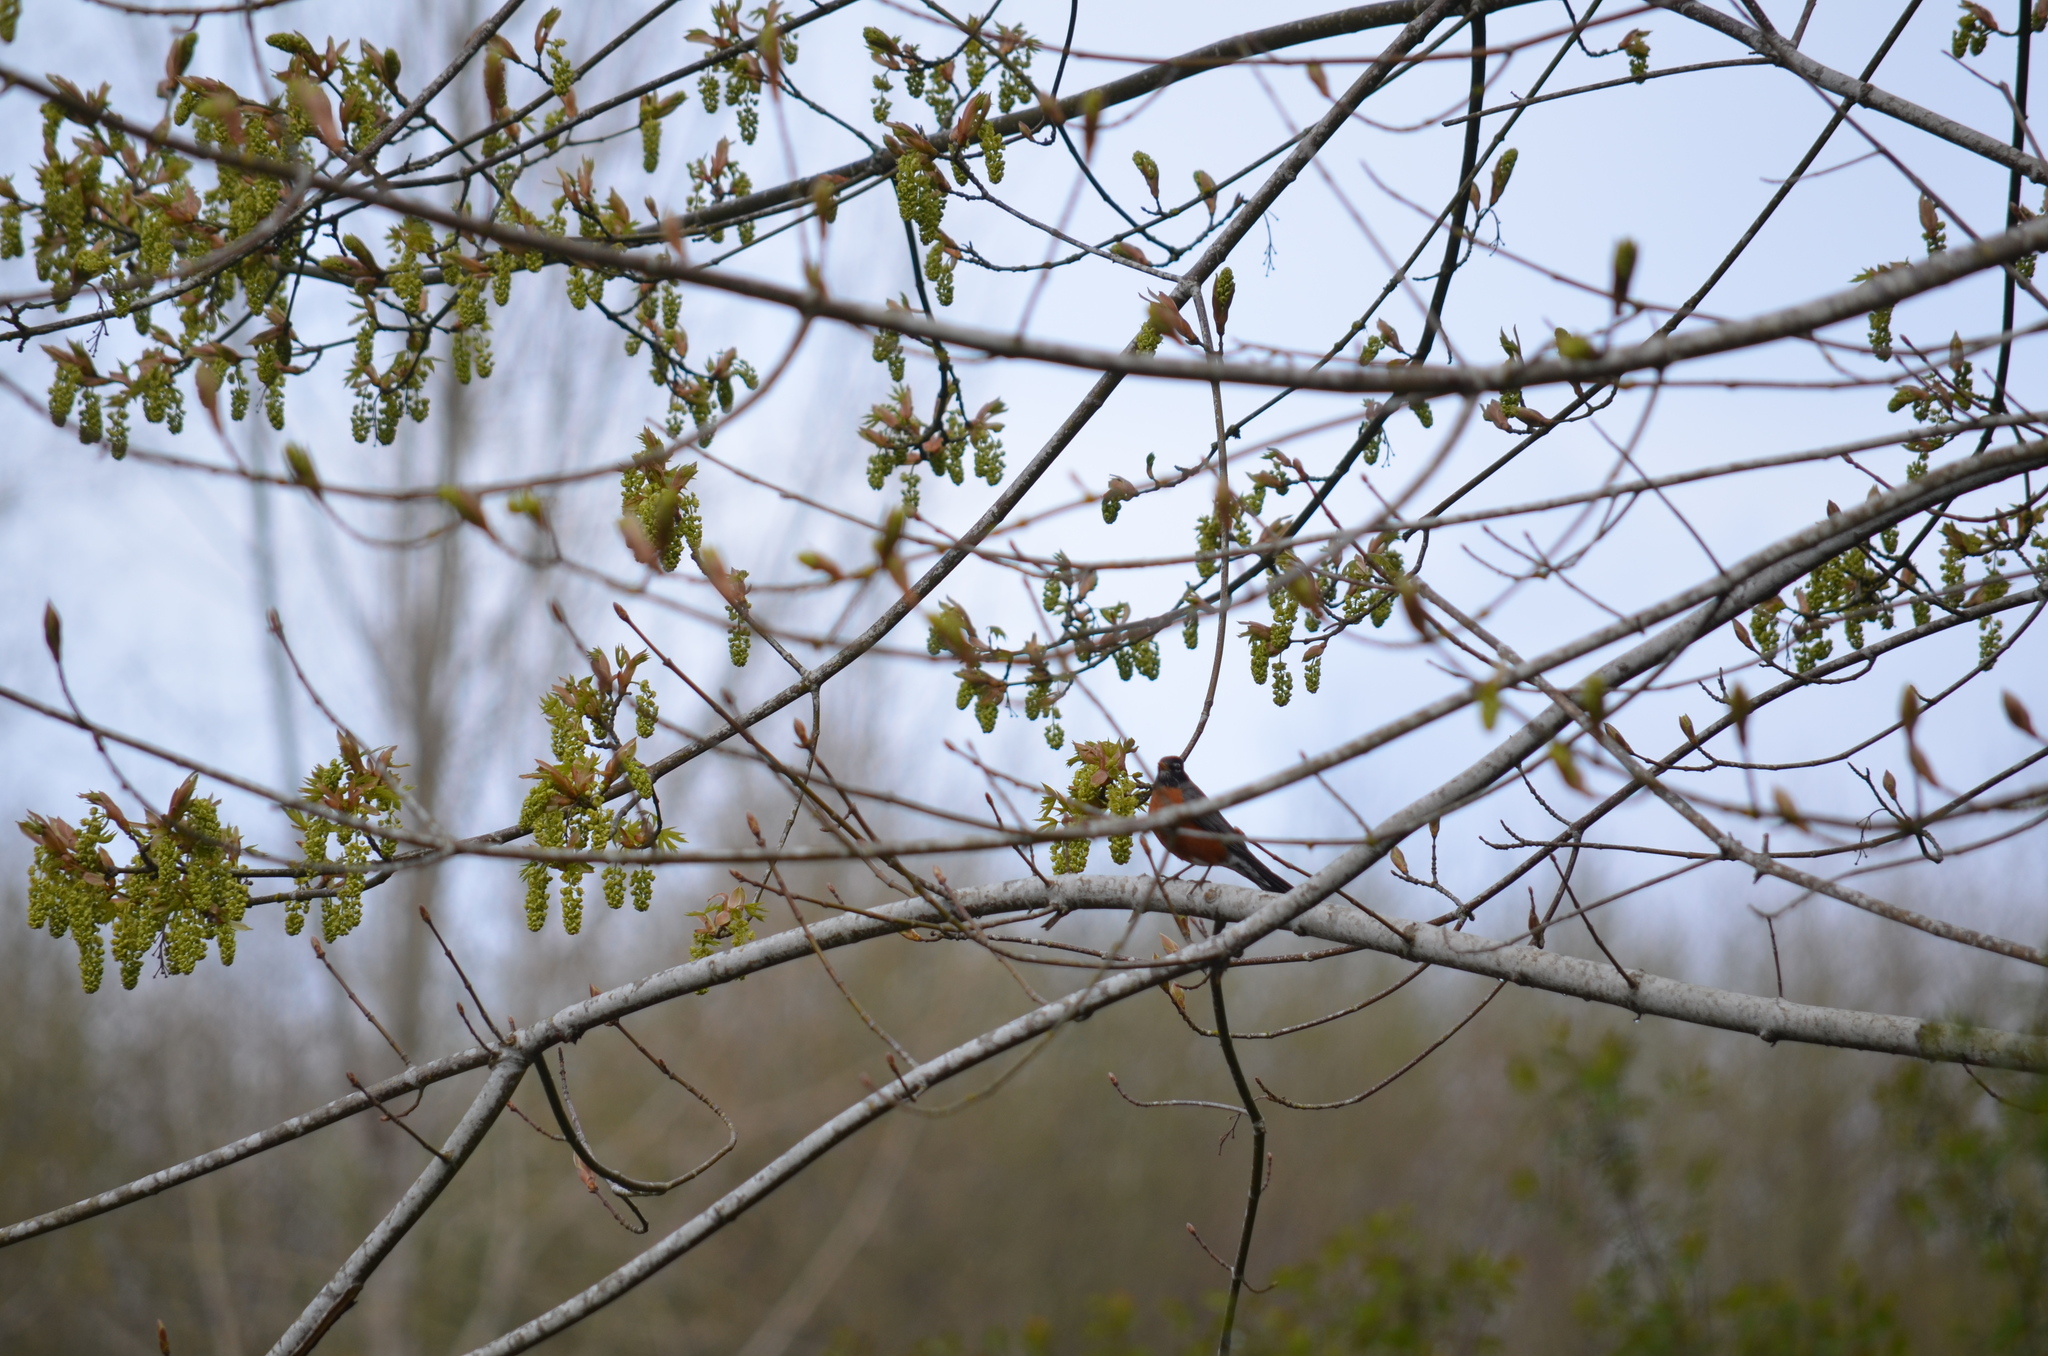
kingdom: Animalia
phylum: Chordata
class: Aves
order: Passeriformes
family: Turdidae
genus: Turdus
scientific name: Turdus migratorius
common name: American robin
